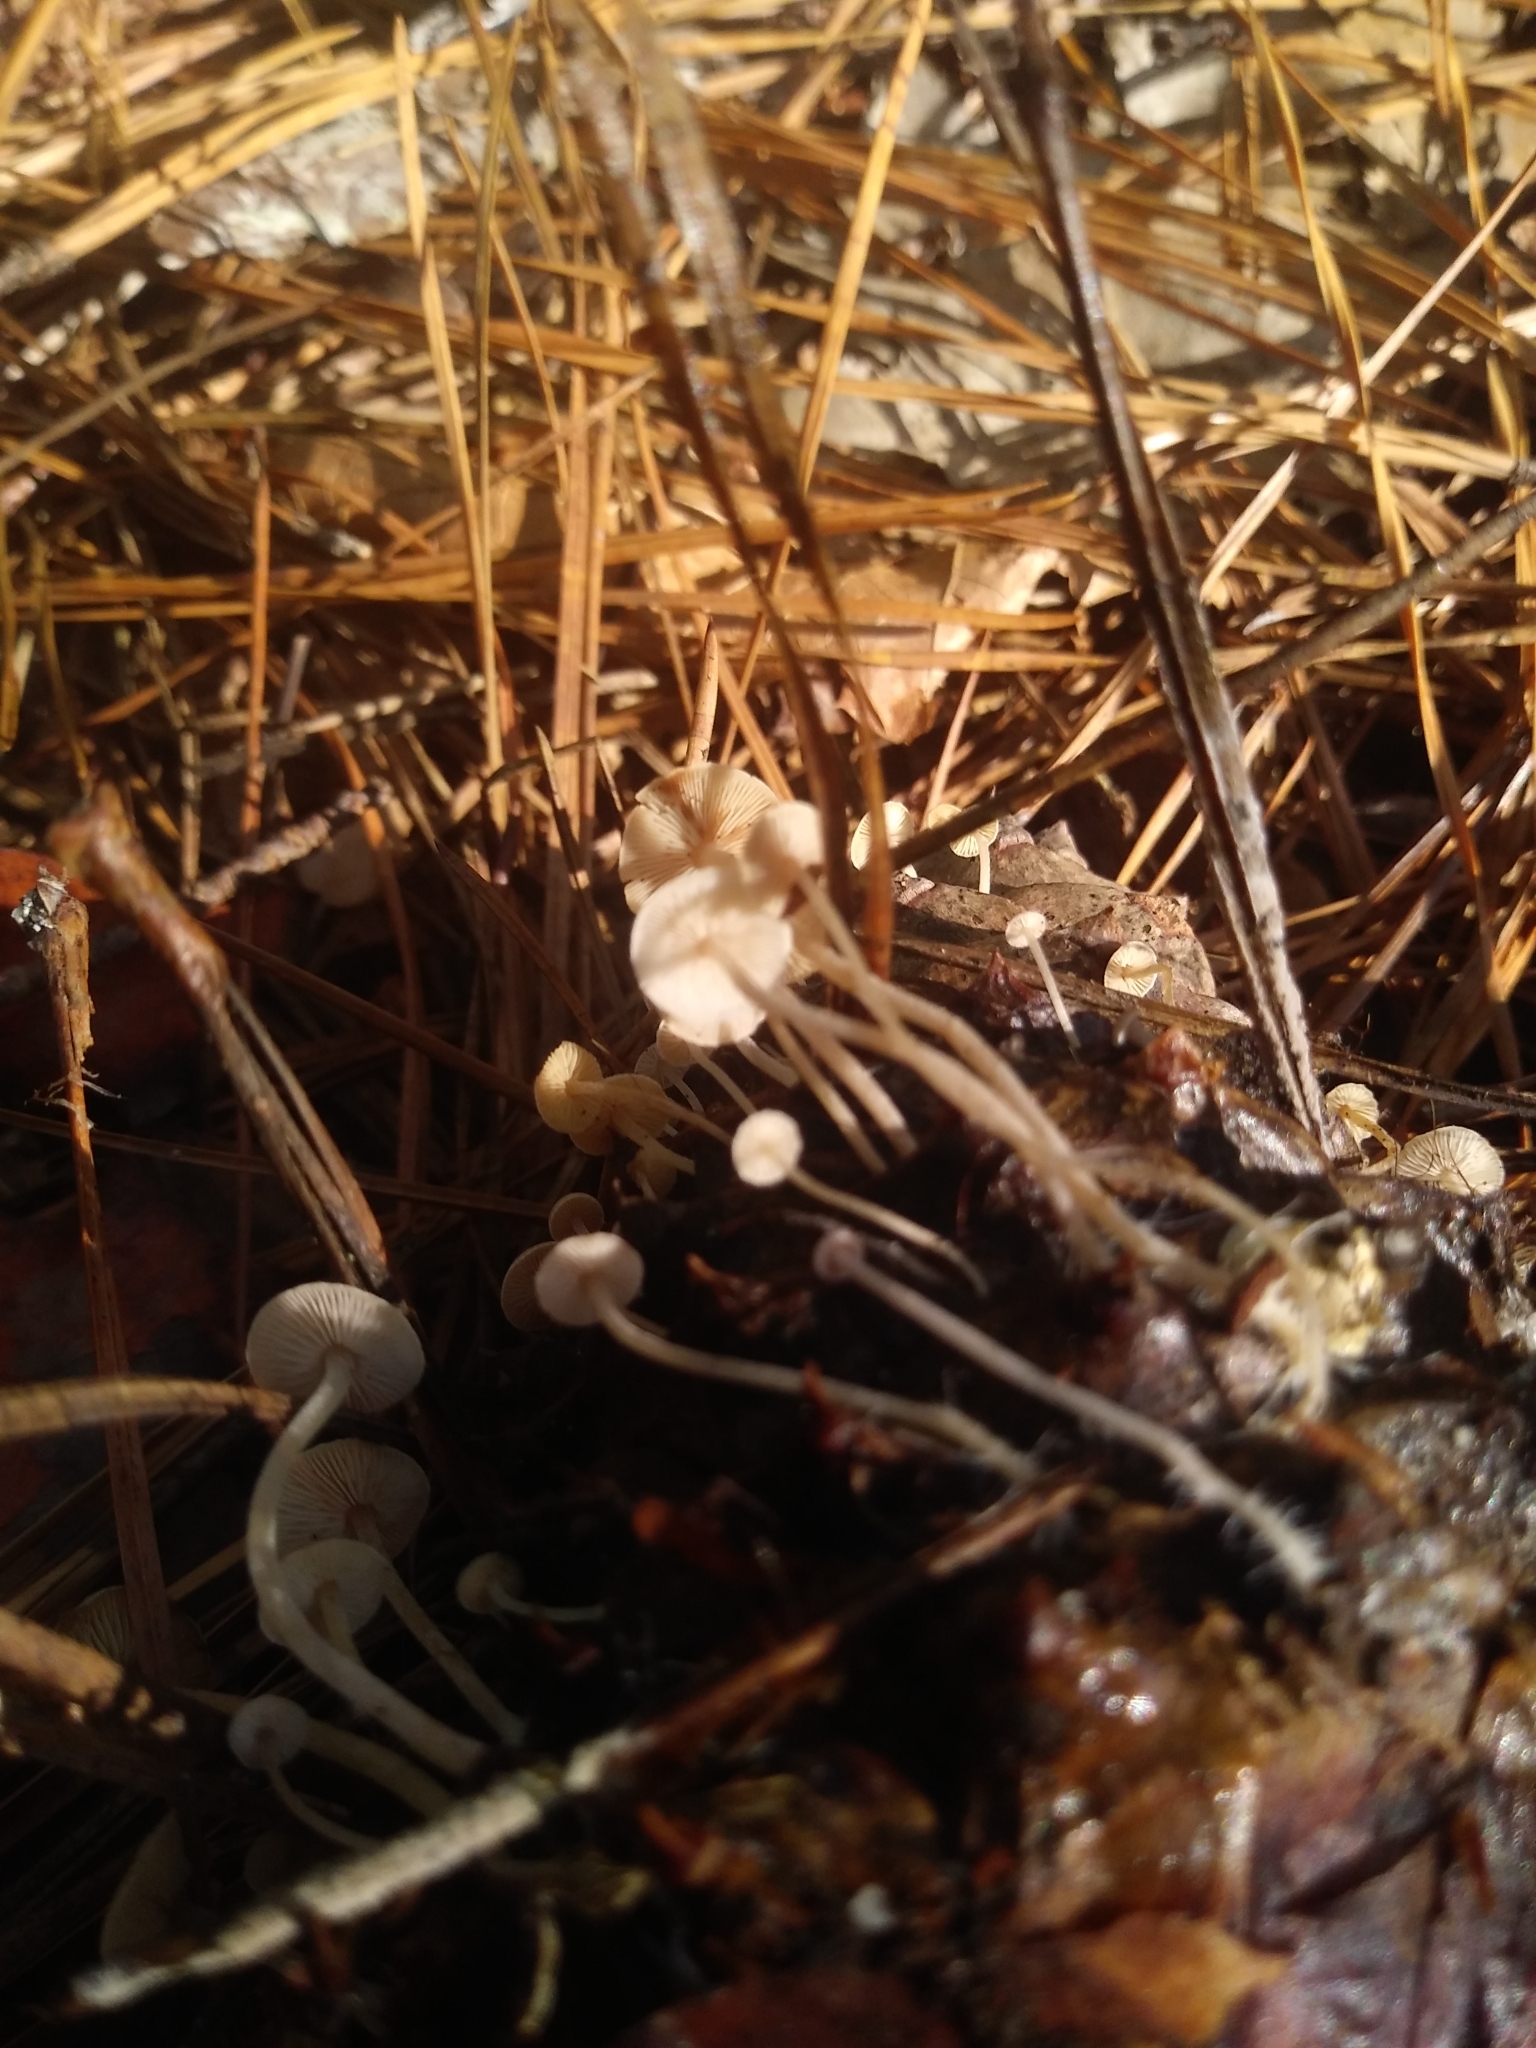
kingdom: Fungi
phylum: Basidiomycota
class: Agaricomycetes
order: Agaricales
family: Marasmiaceae
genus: Baeospora
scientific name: Baeospora myosura
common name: Conifercone cap
